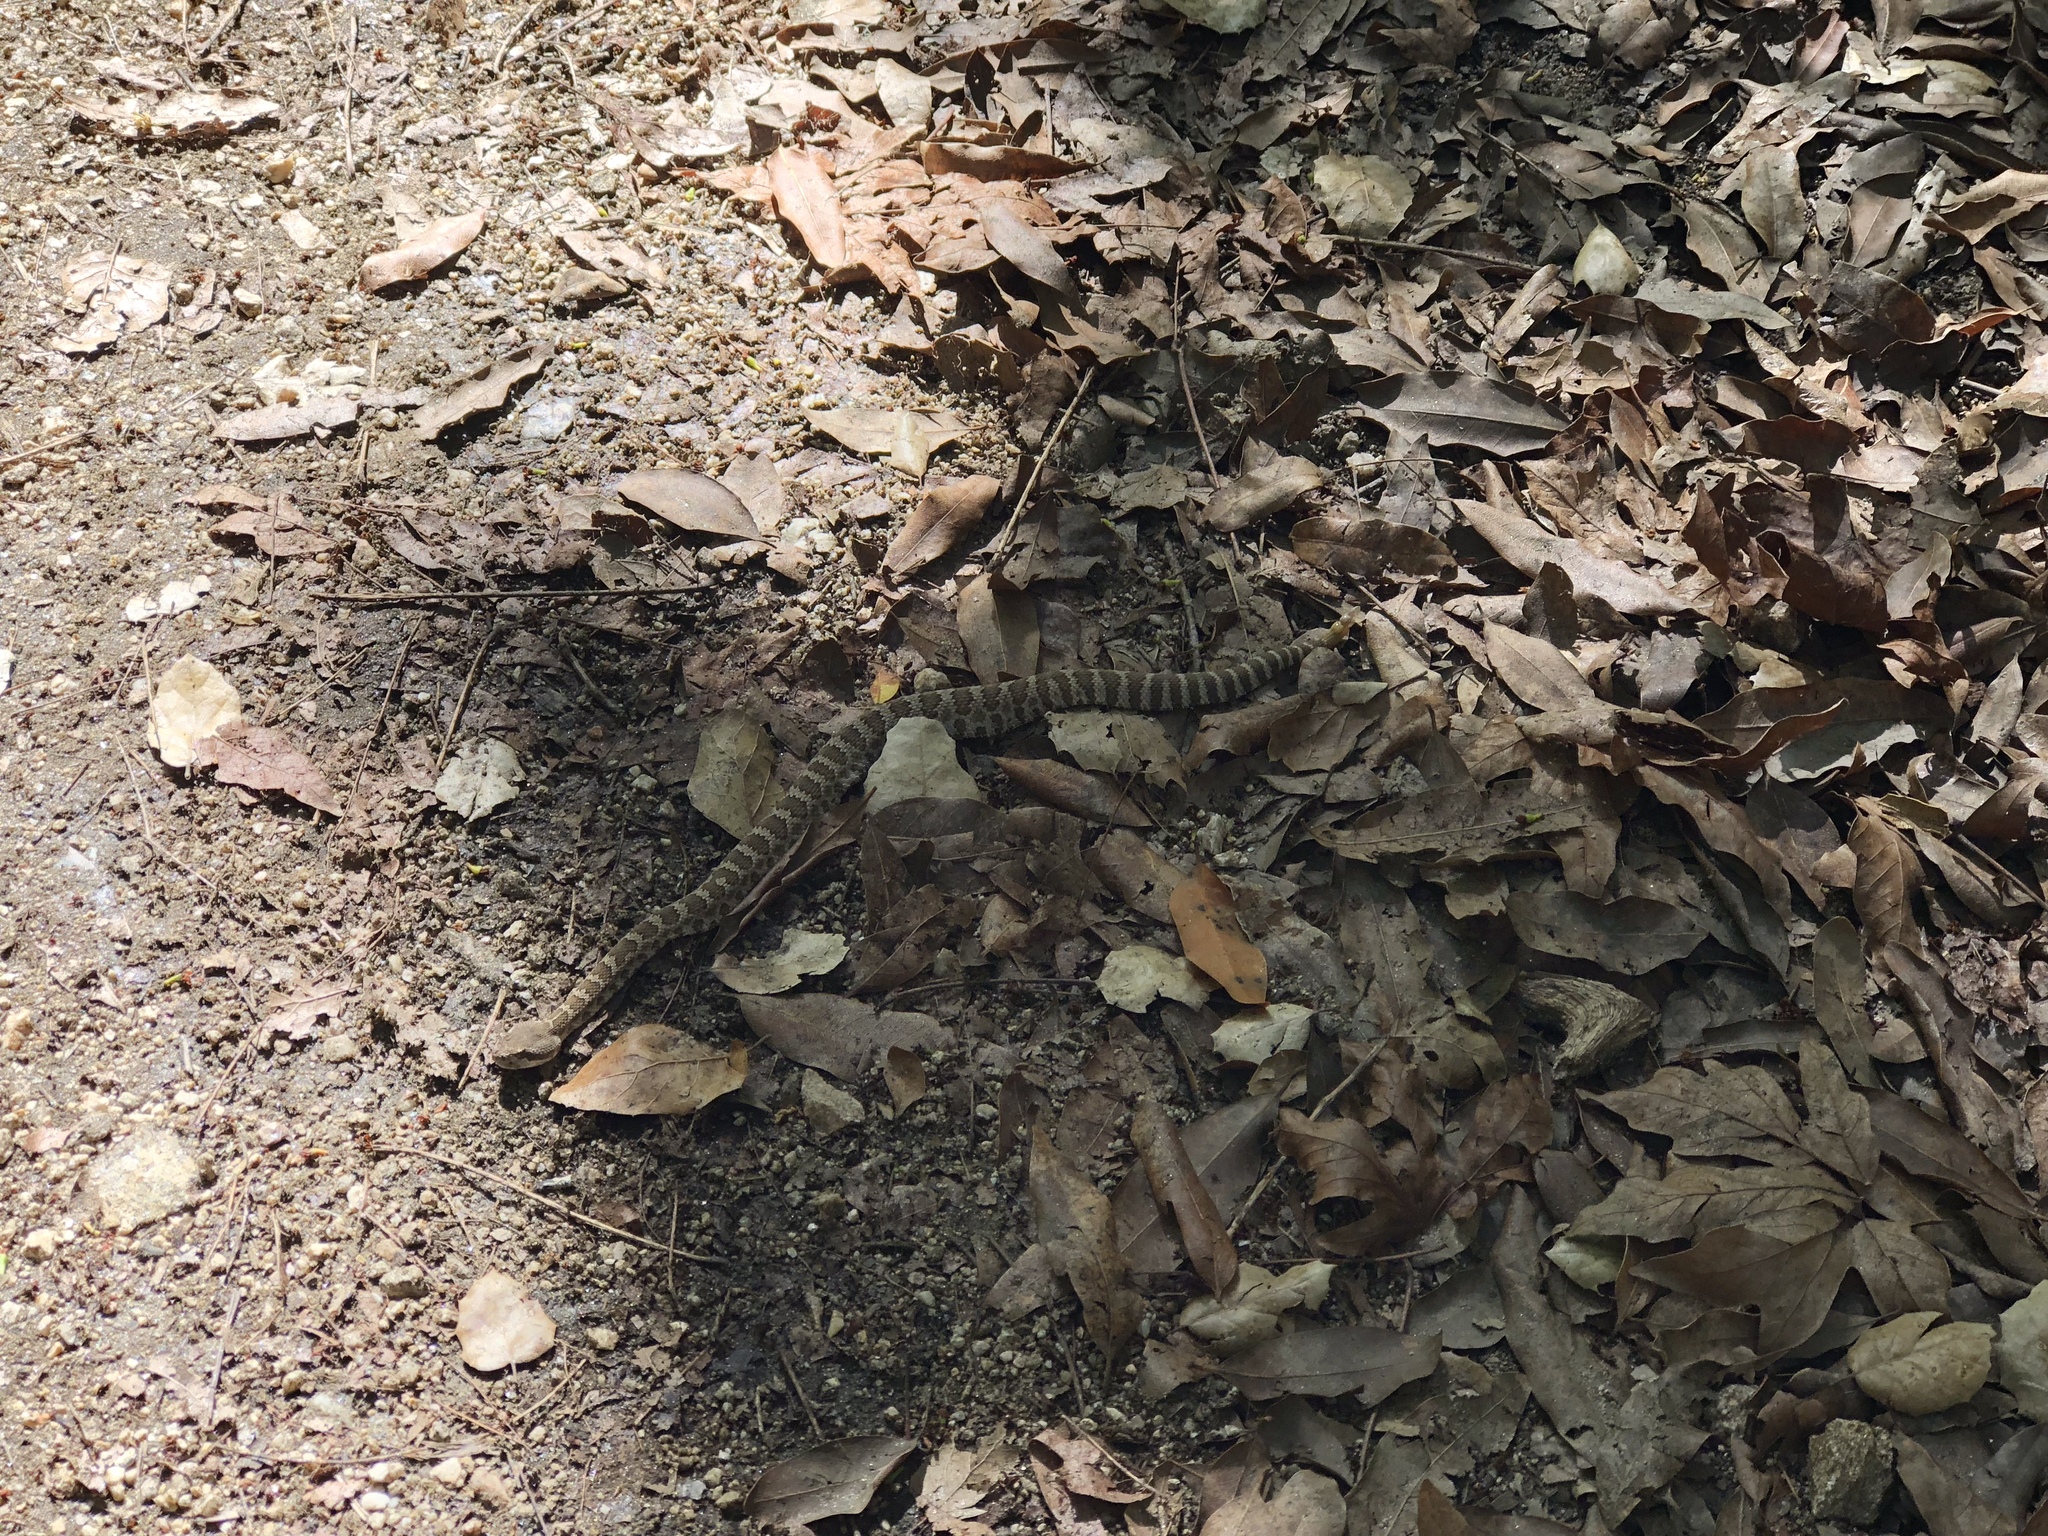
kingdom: Animalia
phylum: Chordata
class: Squamata
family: Viperidae
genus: Crotalus
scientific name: Crotalus oreganus
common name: Abyssus
